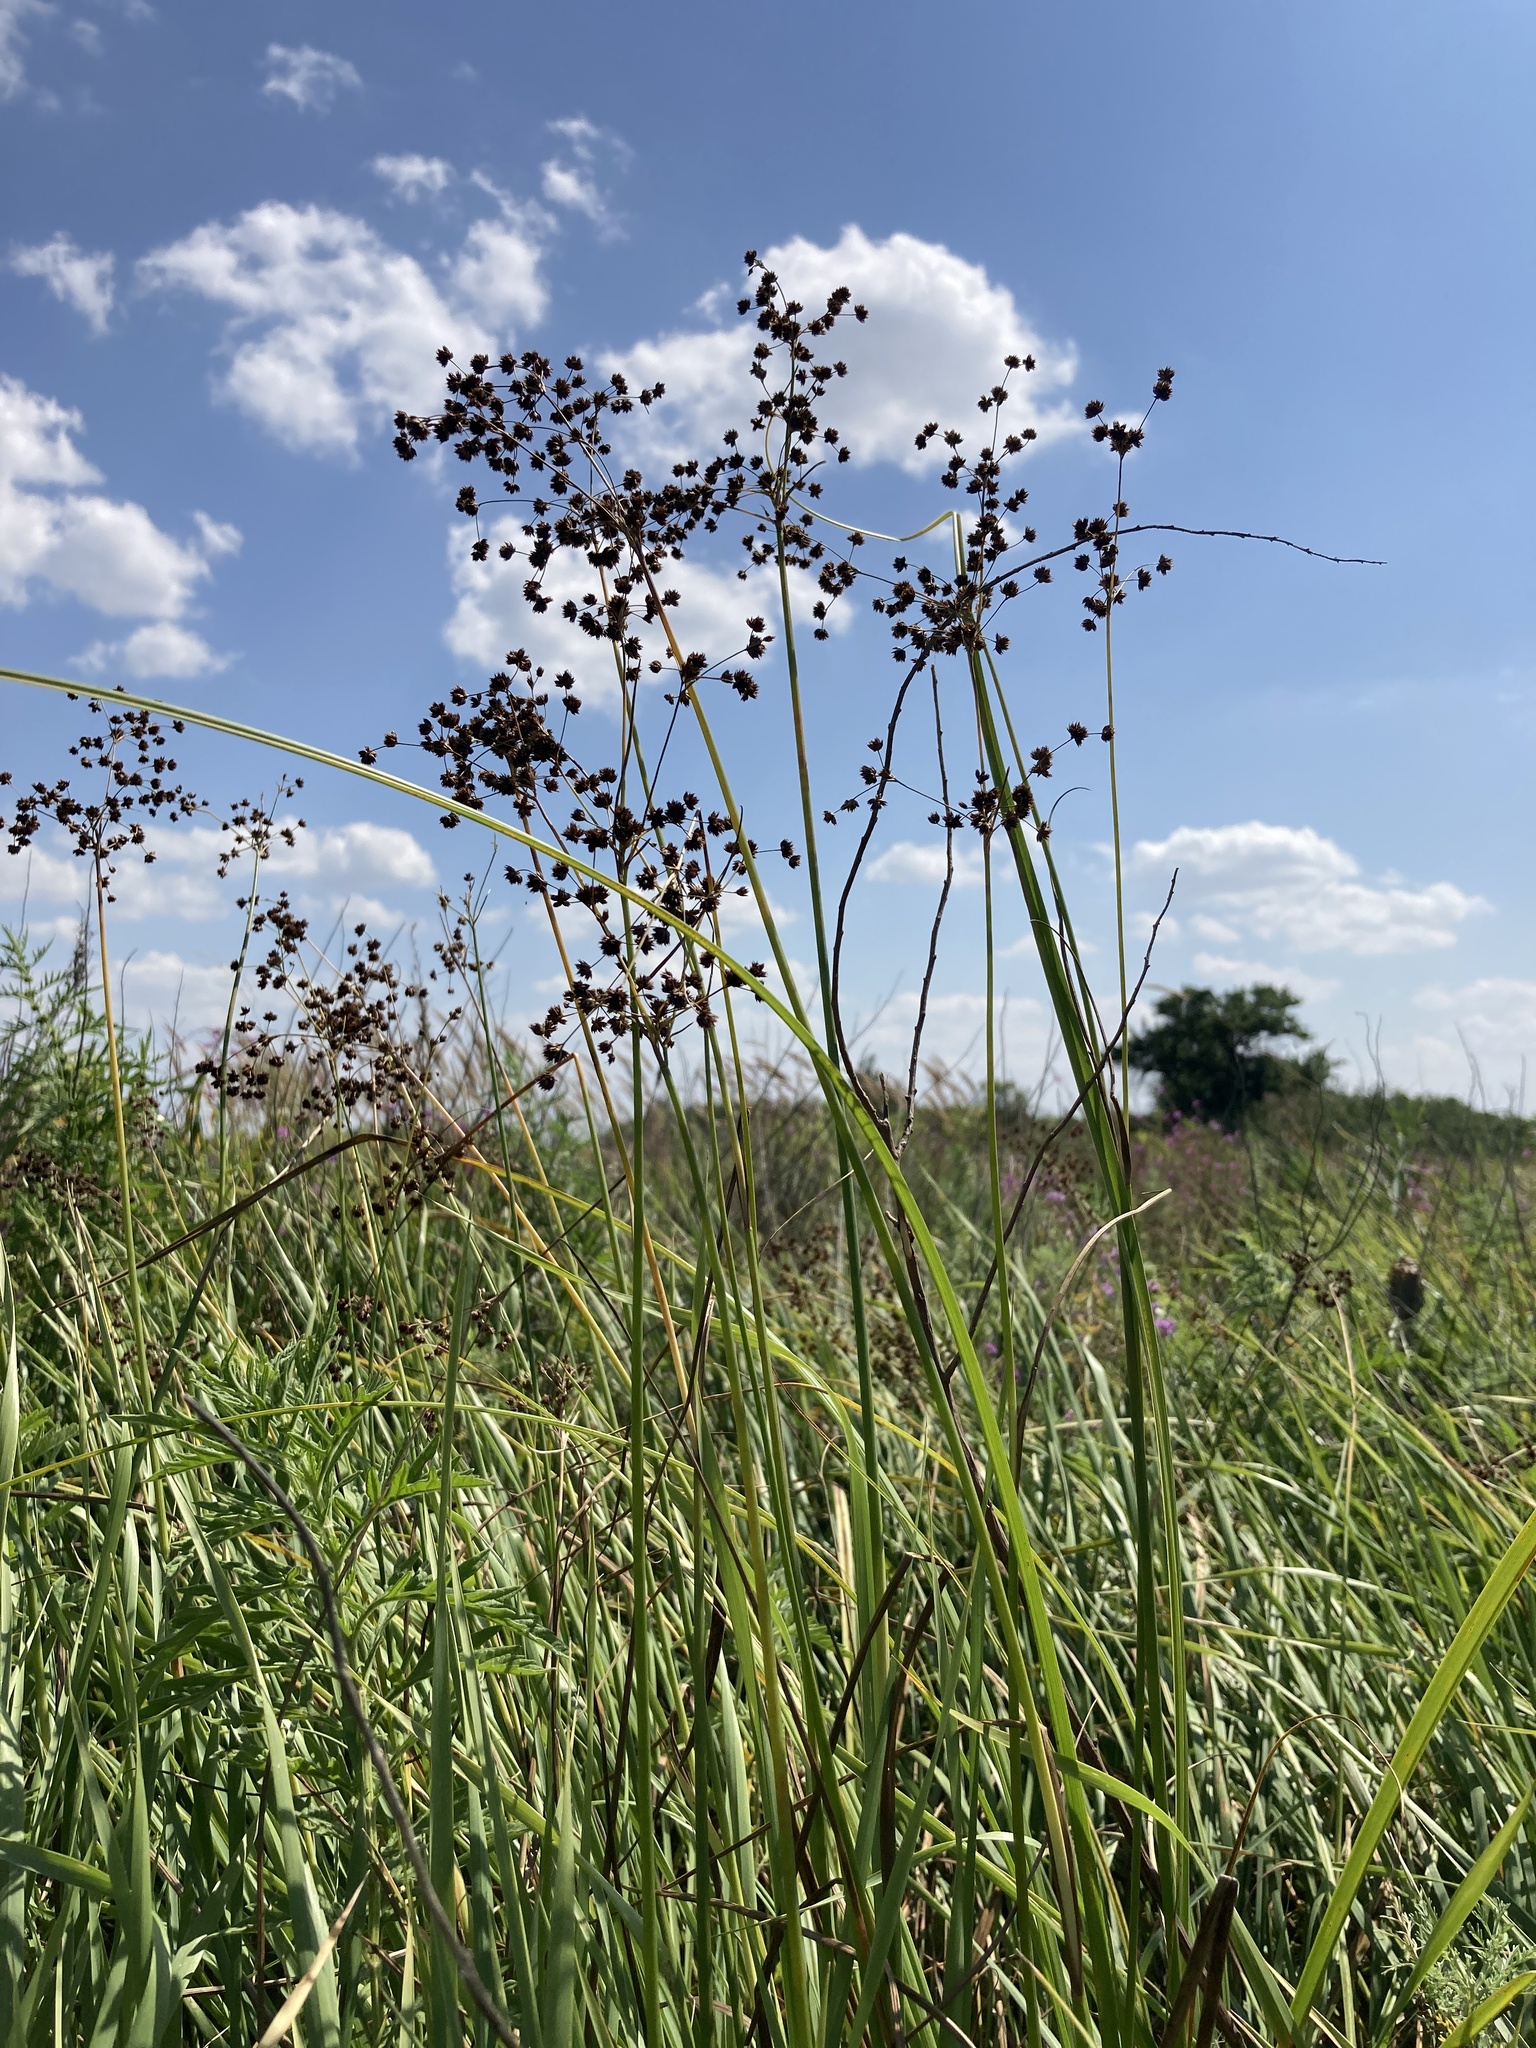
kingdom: Plantae
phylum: Tracheophyta
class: Liliopsida
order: Poales
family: Juncaceae
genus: Juncus
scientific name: Juncus articulatus
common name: Jointed rush
